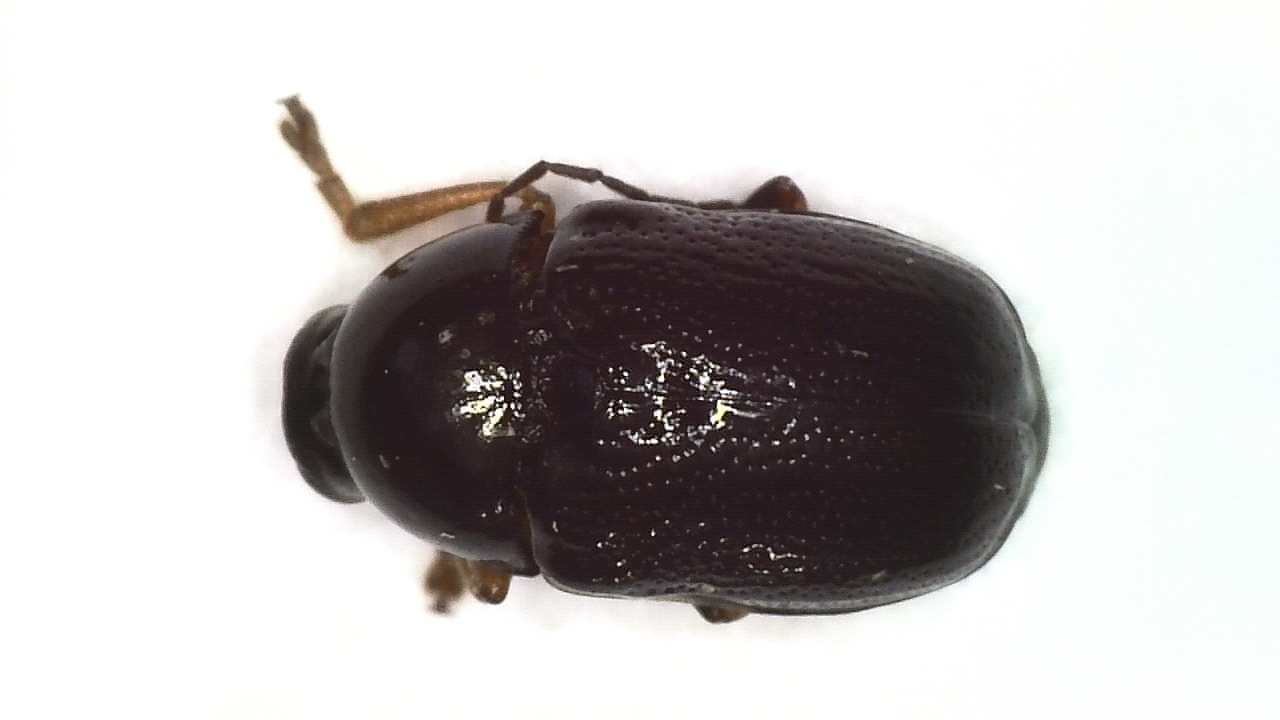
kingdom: Animalia
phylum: Arthropoda
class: Insecta
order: Coleoptera
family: Chrysomelidae
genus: Cryptocephalus
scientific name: Cryptocephalus bameuli
